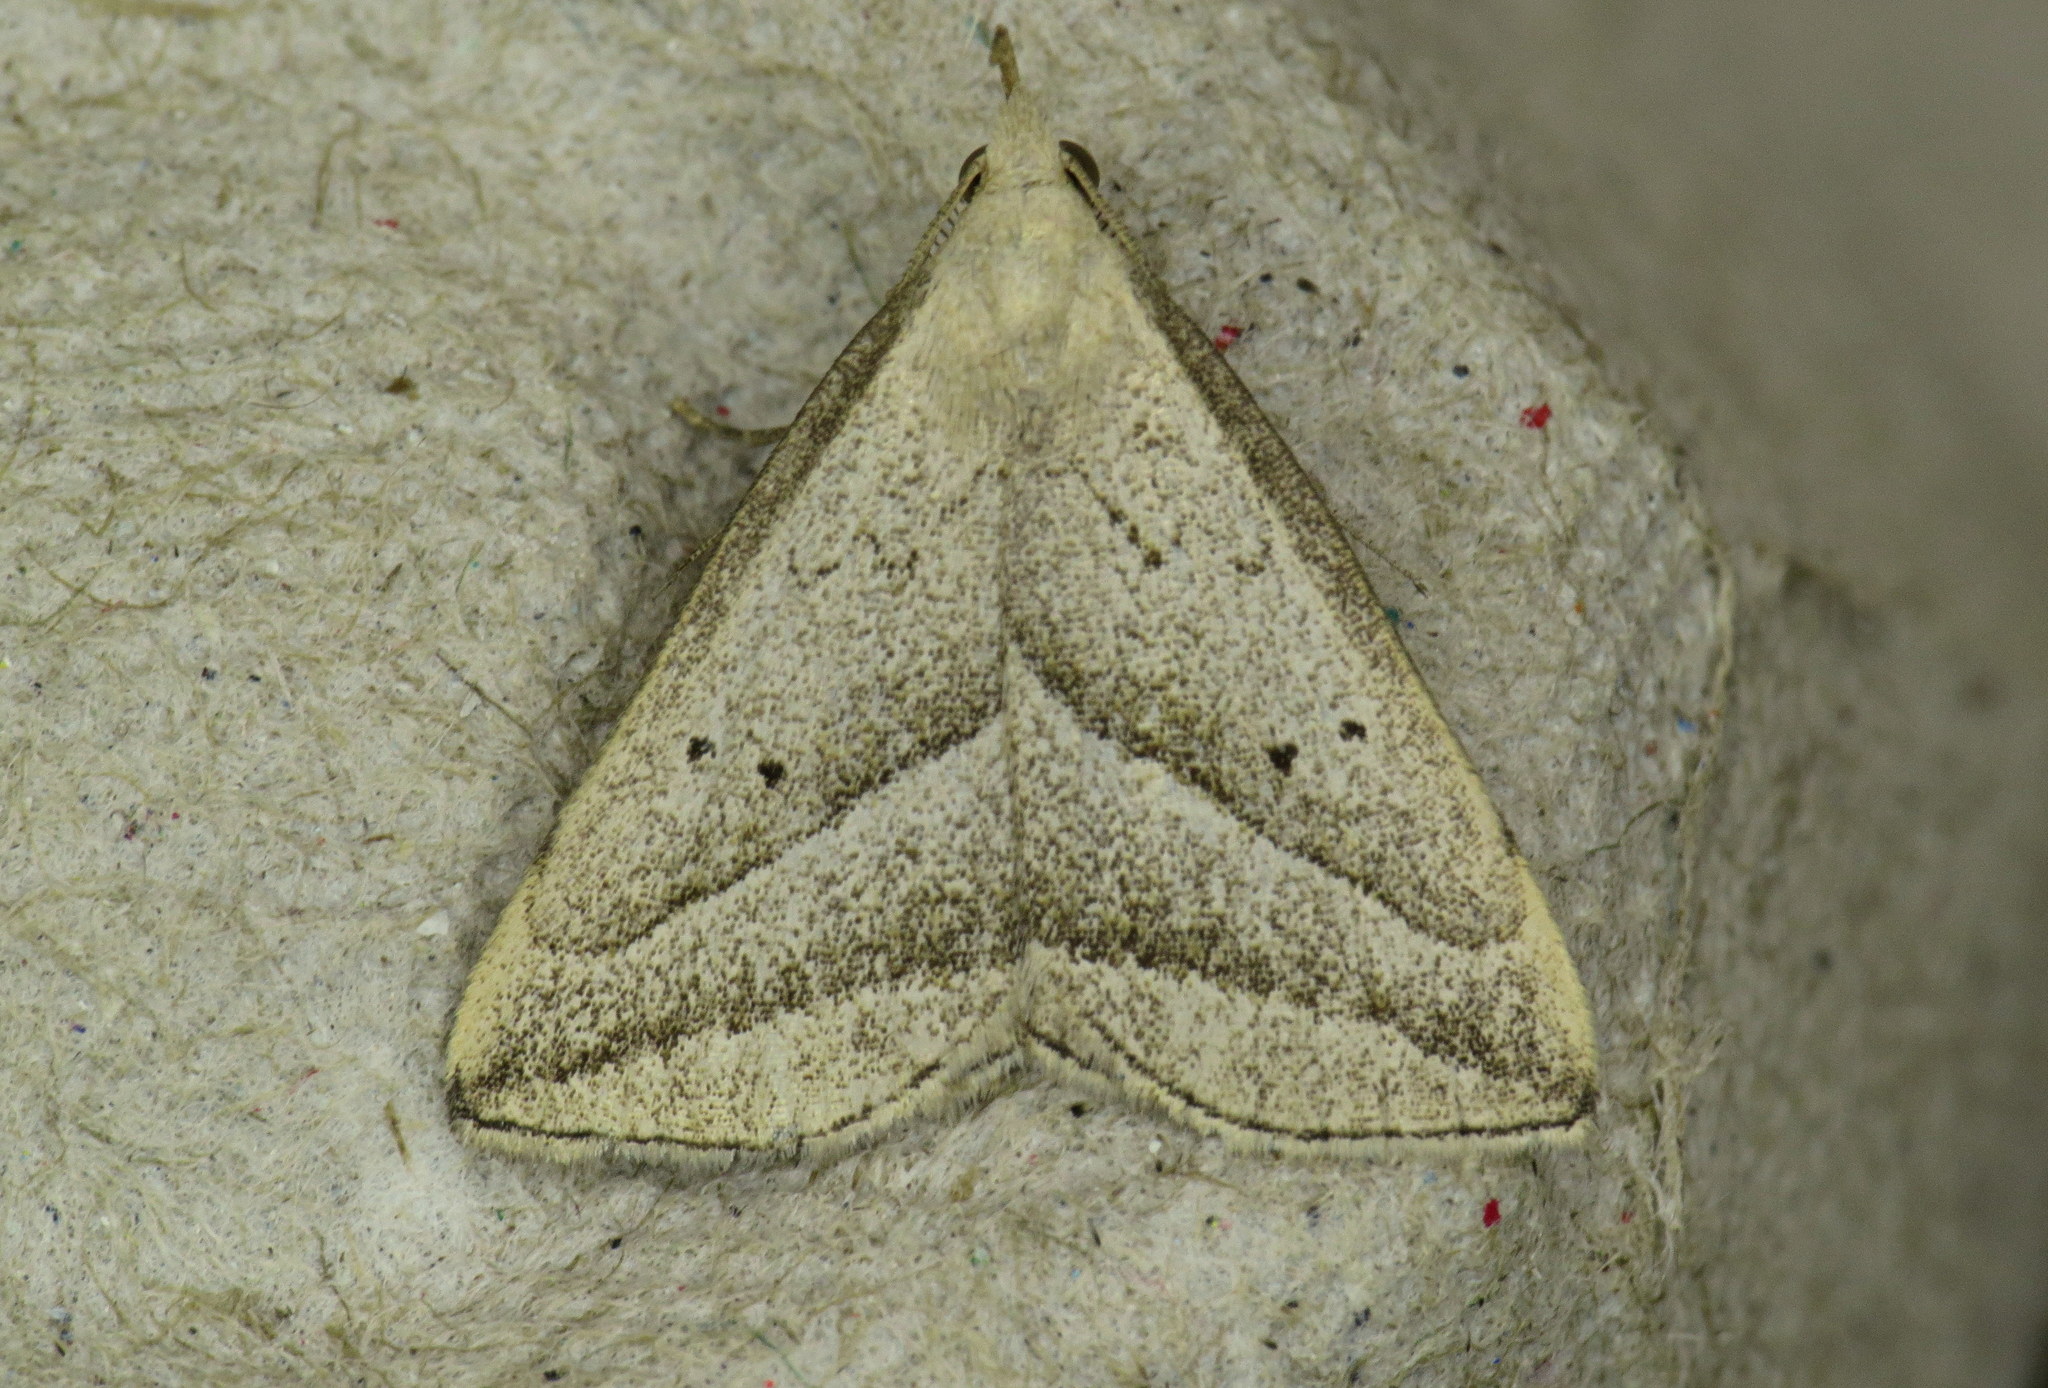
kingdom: Animalia
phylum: Arthropoda
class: Insecta
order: Lepidoptera
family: Erebidae
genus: Macrochilo
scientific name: Macrochilo absorptalis
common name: Slant-lined owlet
